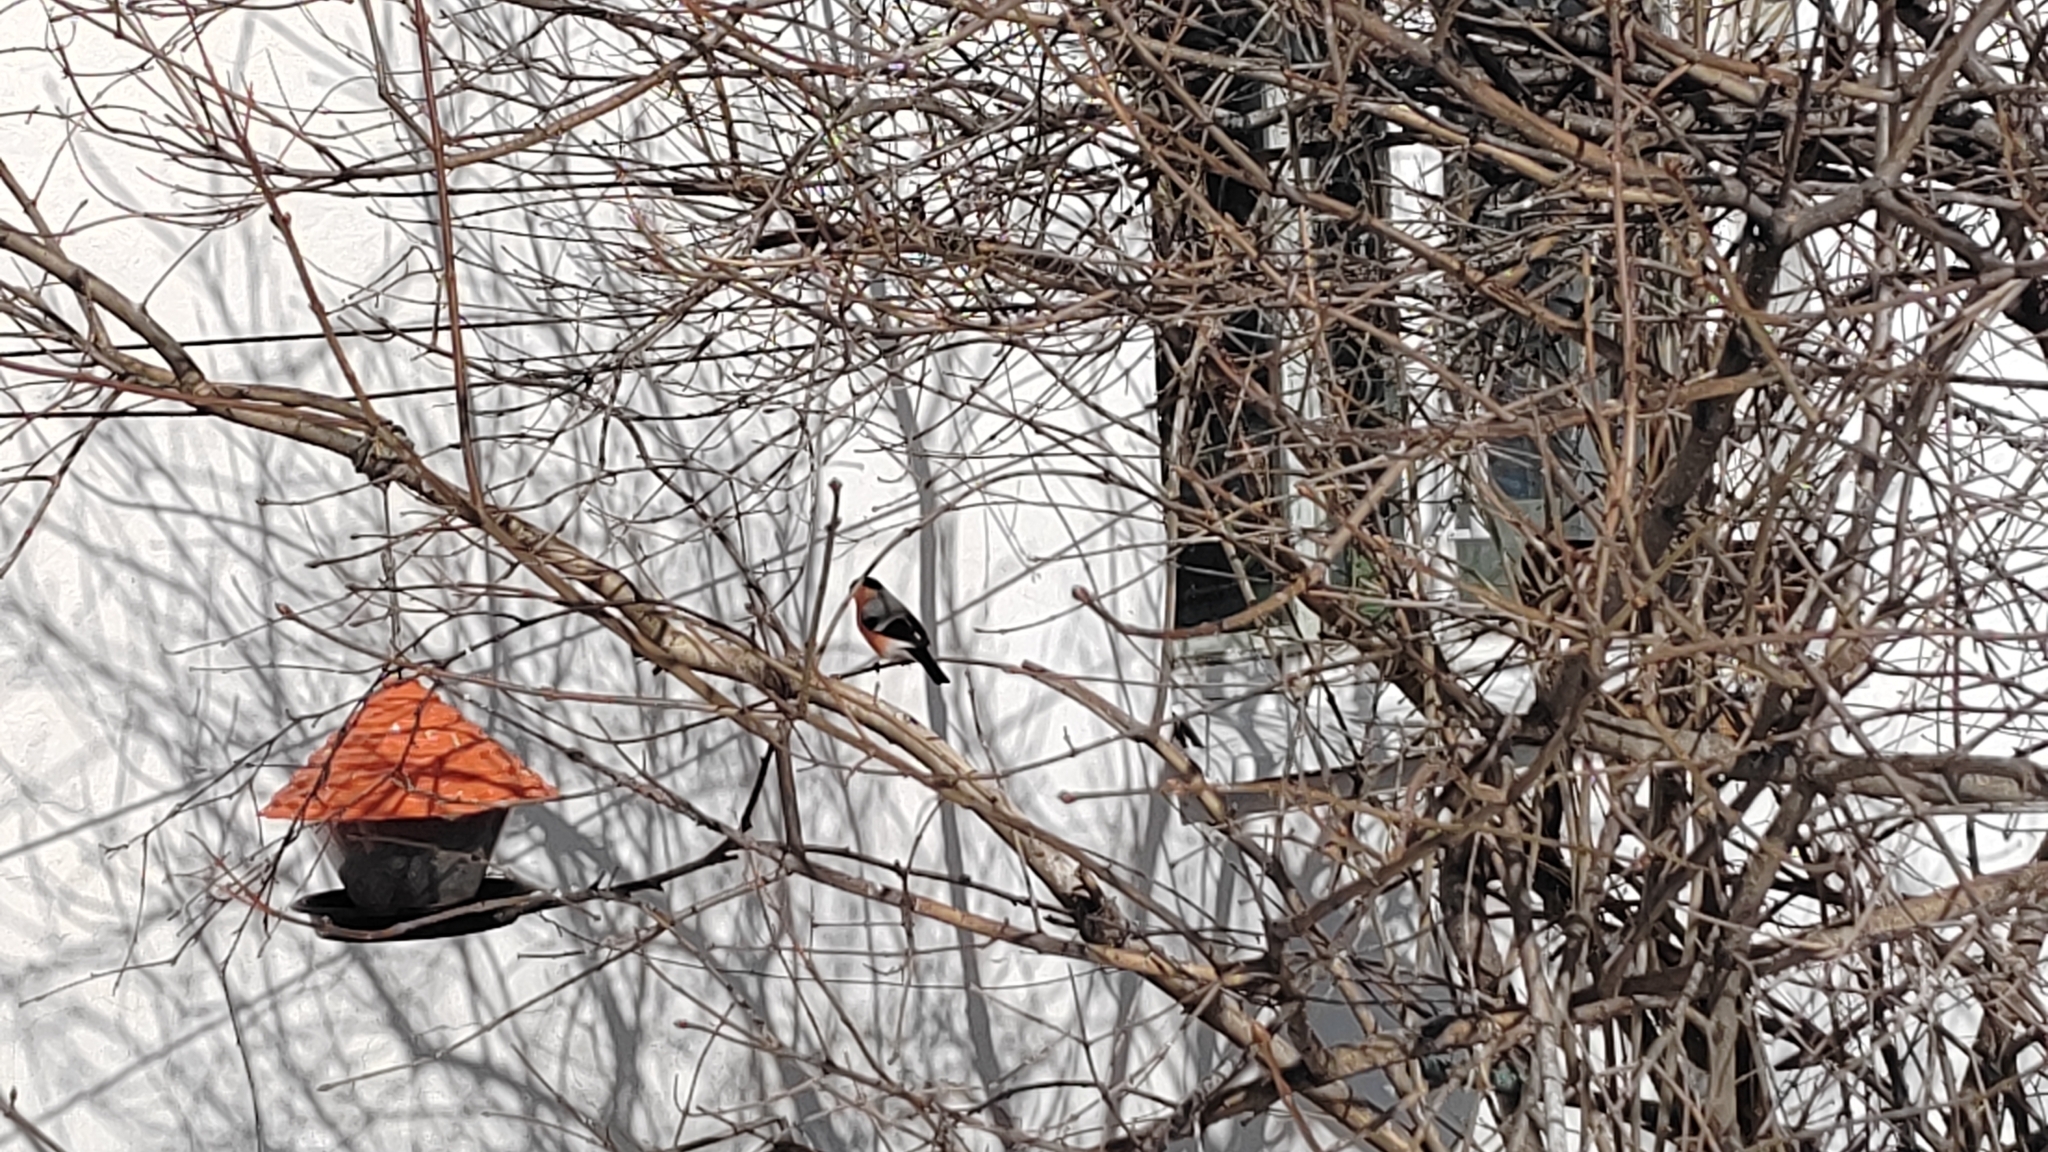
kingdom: Animalia
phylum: Chordata
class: Aves
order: Passeriformes
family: Fringillidae
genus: Pyrrhula
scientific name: Pyrrhula pyrrhula
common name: Eurasian bullfinch
